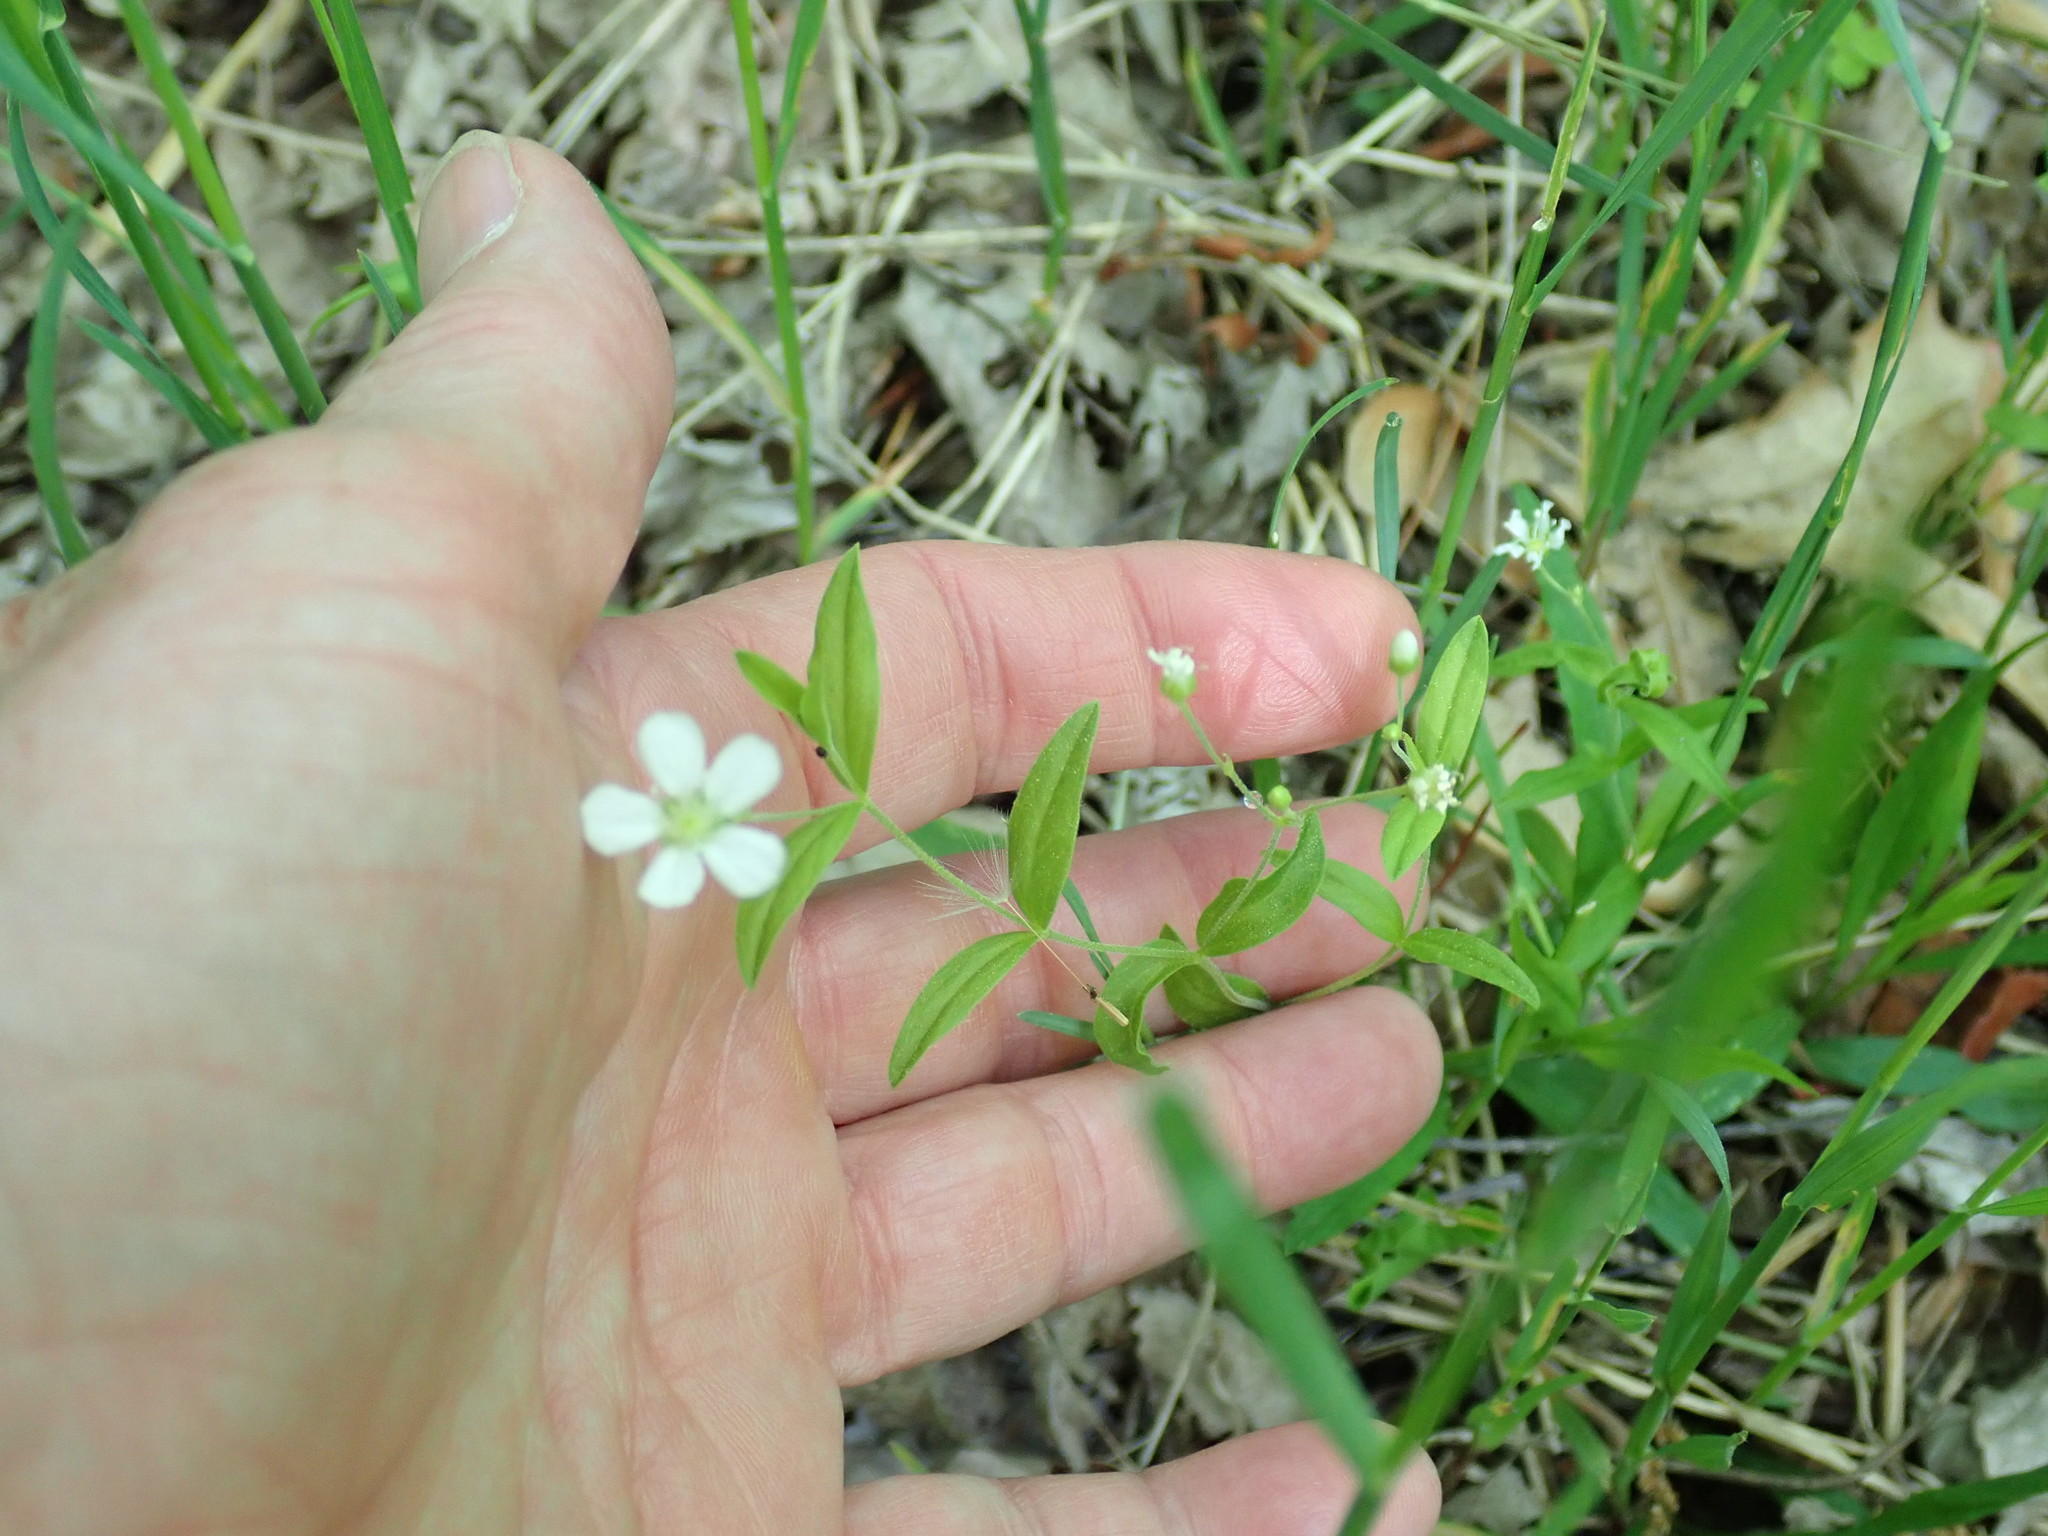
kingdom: Plantae
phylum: Tracheophyta
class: Magnoliopsida
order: Caryophyllales
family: Caryophyllaceae
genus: Moehringia
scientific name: Moehringia lateriflora
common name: Blunt-leaved sandwort
